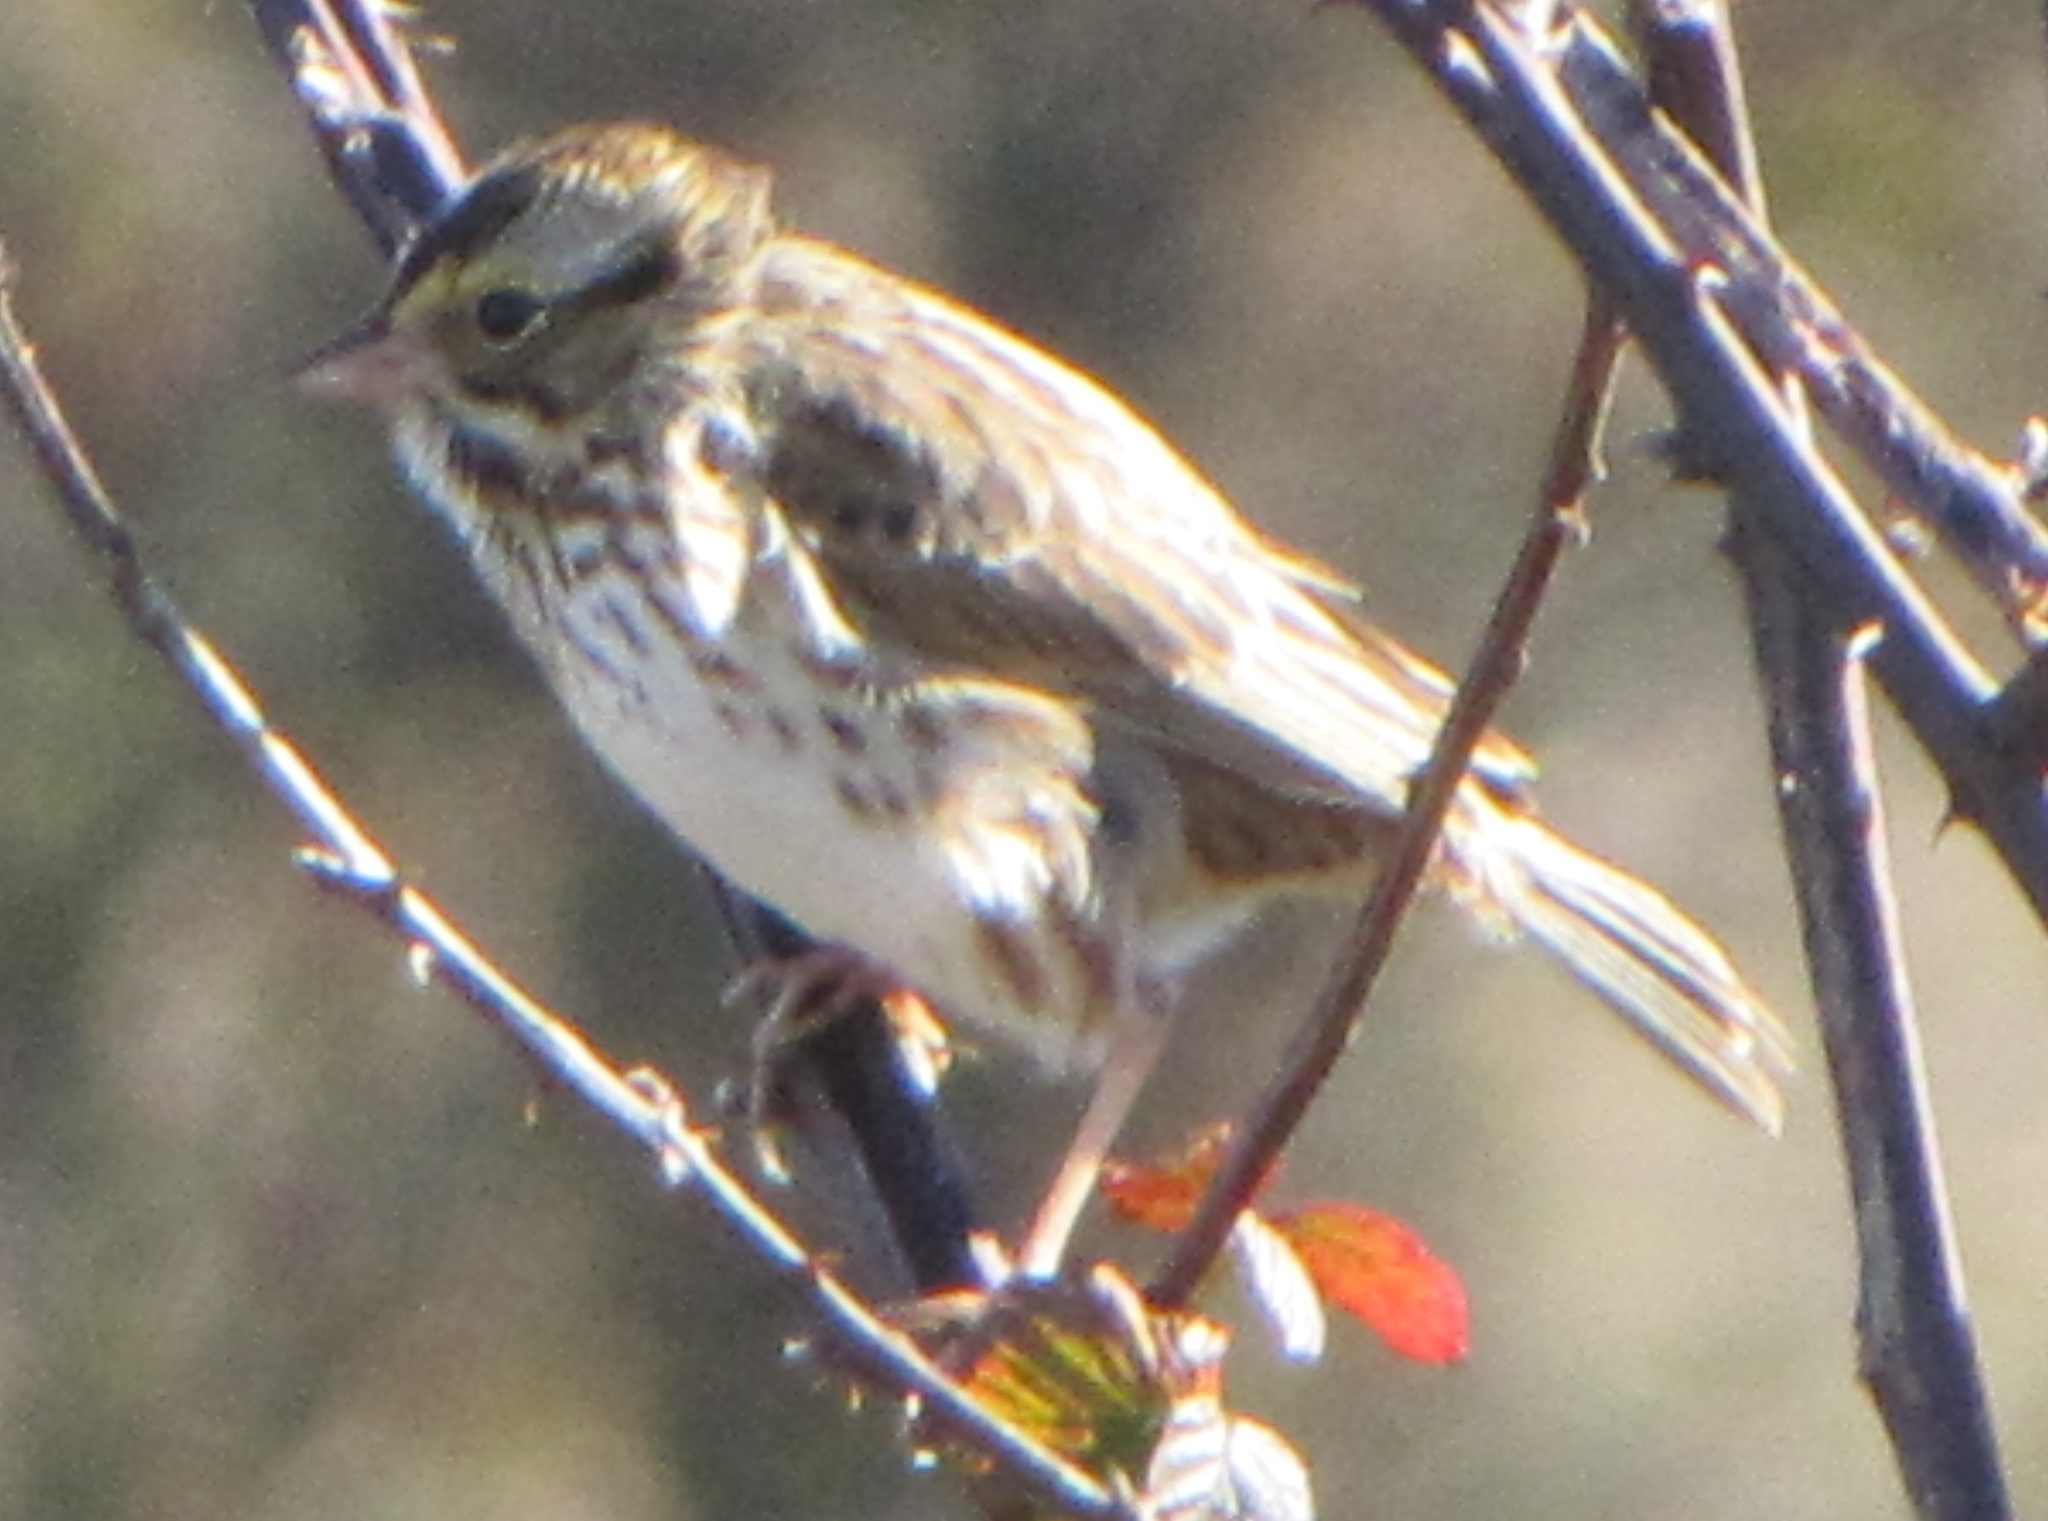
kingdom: Animalia
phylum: Chordata
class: Aves
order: Passeriformes
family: Passerellidae
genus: Passerculus
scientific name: Passerculus sandwichensis
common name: Savannah sparrow
